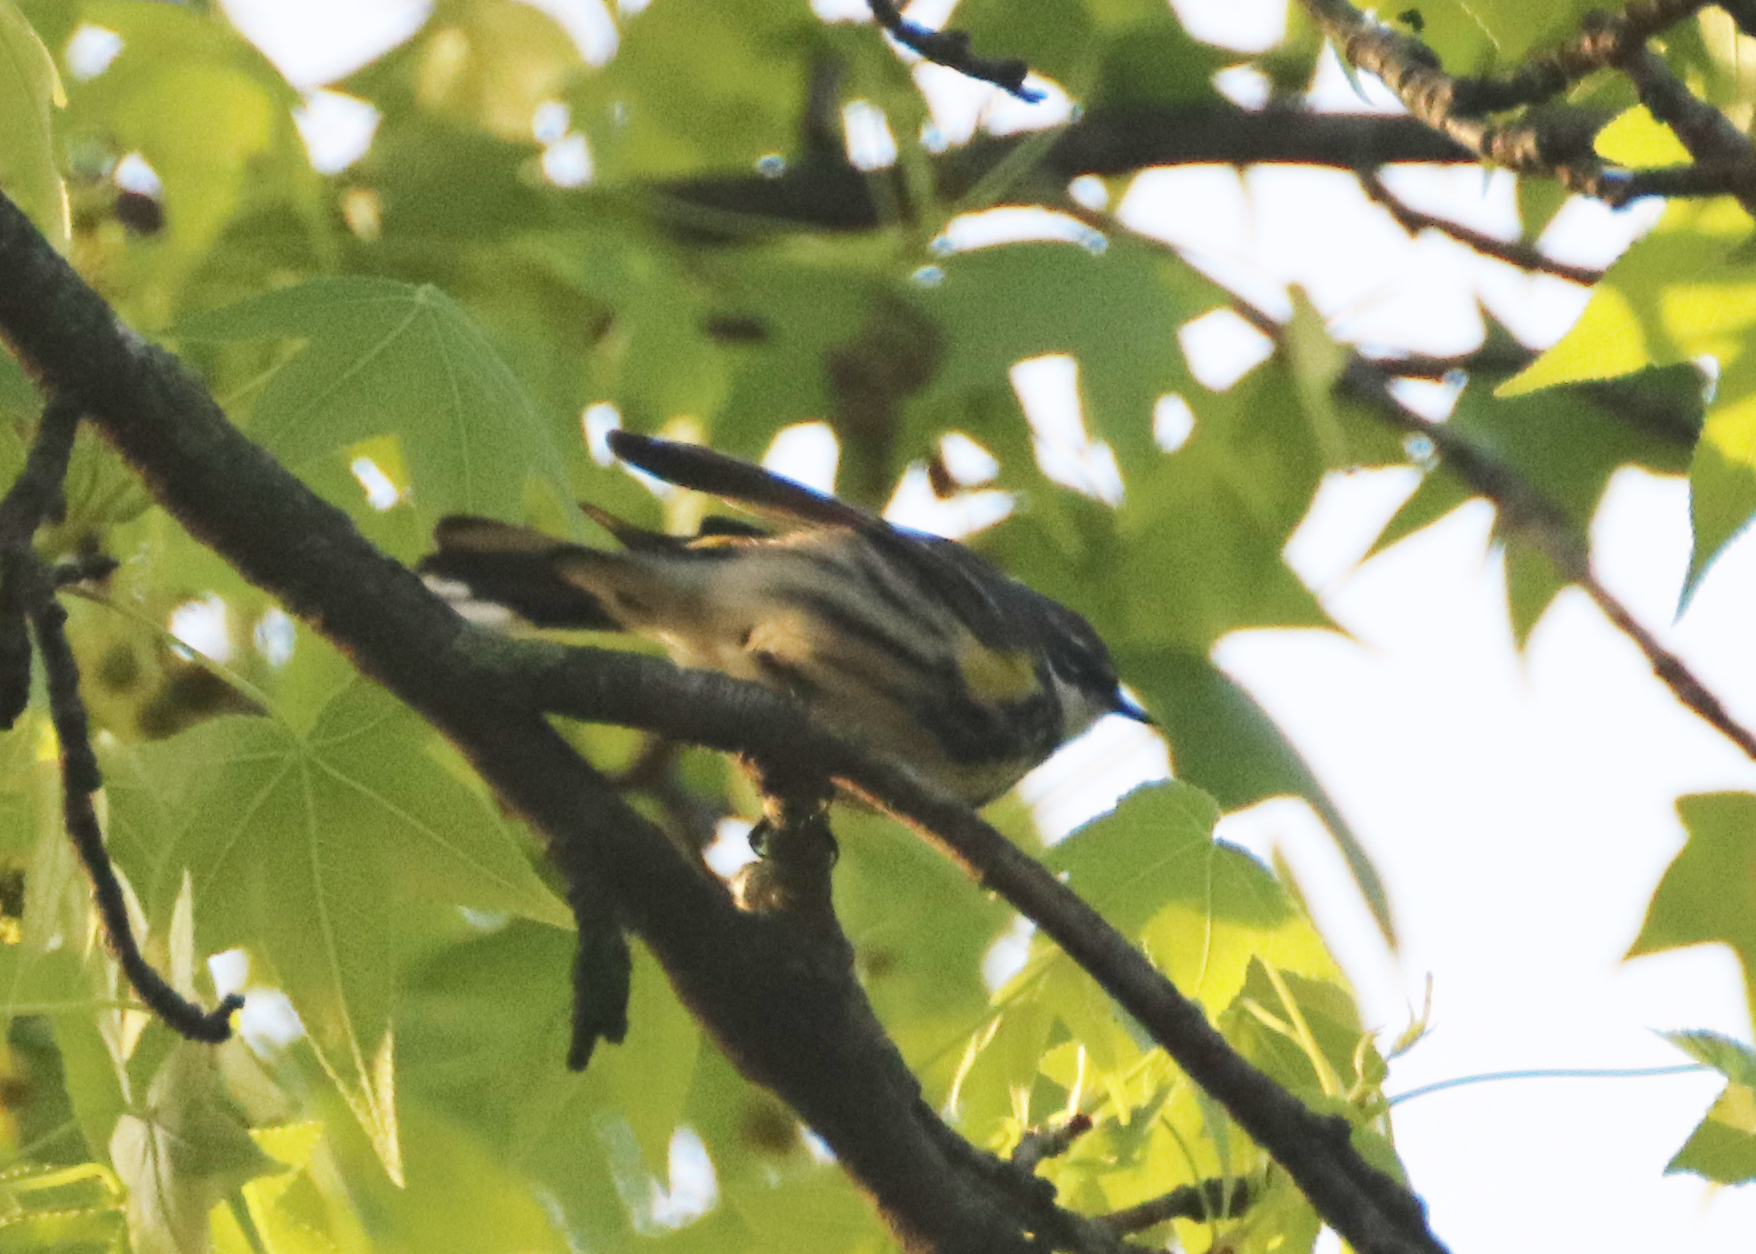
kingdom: Animalia
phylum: Chordata
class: Aves
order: Passeriformes
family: Parulidae
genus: Setophaga
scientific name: Setophaga coronata
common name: Myrtle warbler
